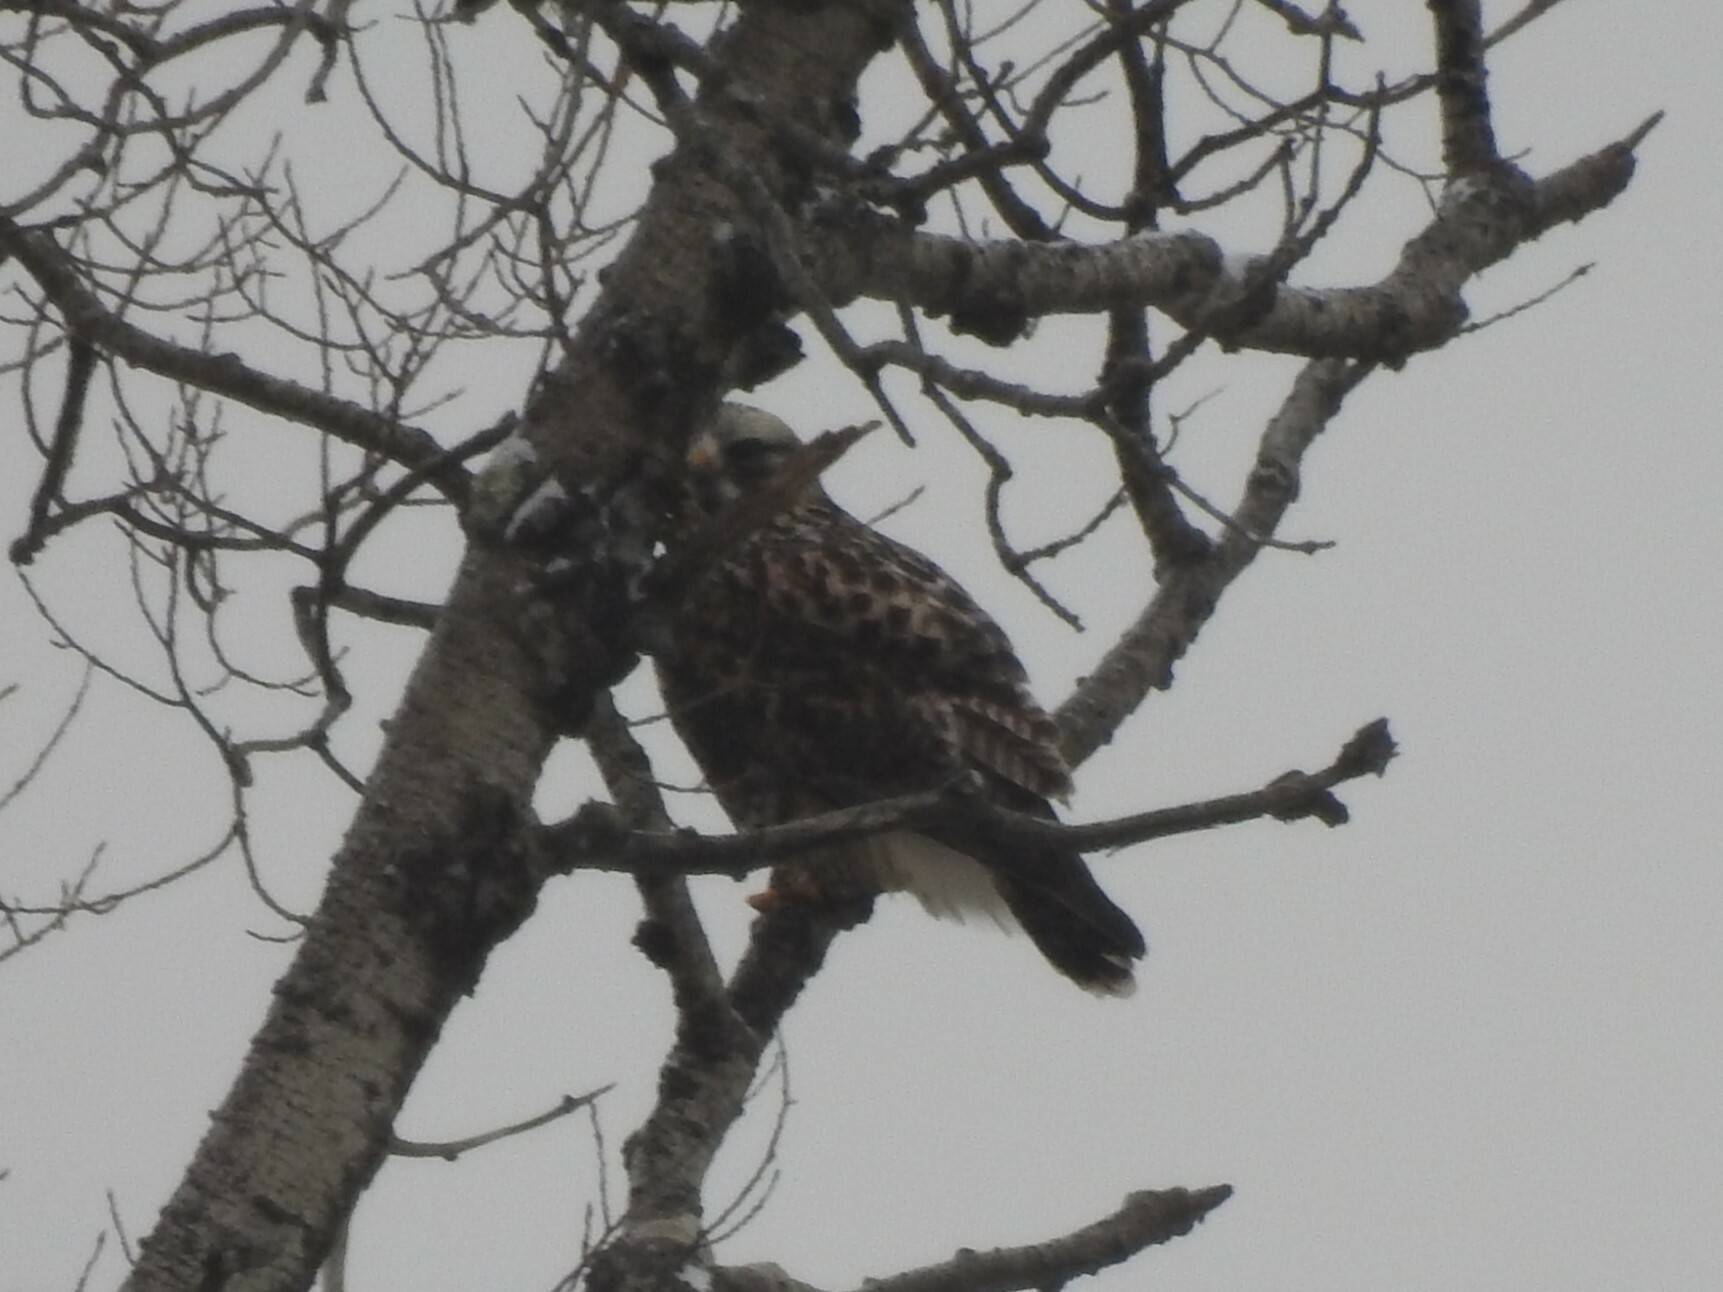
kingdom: Animalia
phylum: Chordata
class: Aves
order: Accipitriformes
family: Accipitridae
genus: Buteo
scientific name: Buteo lagopus
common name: Rough-legged buzzard
